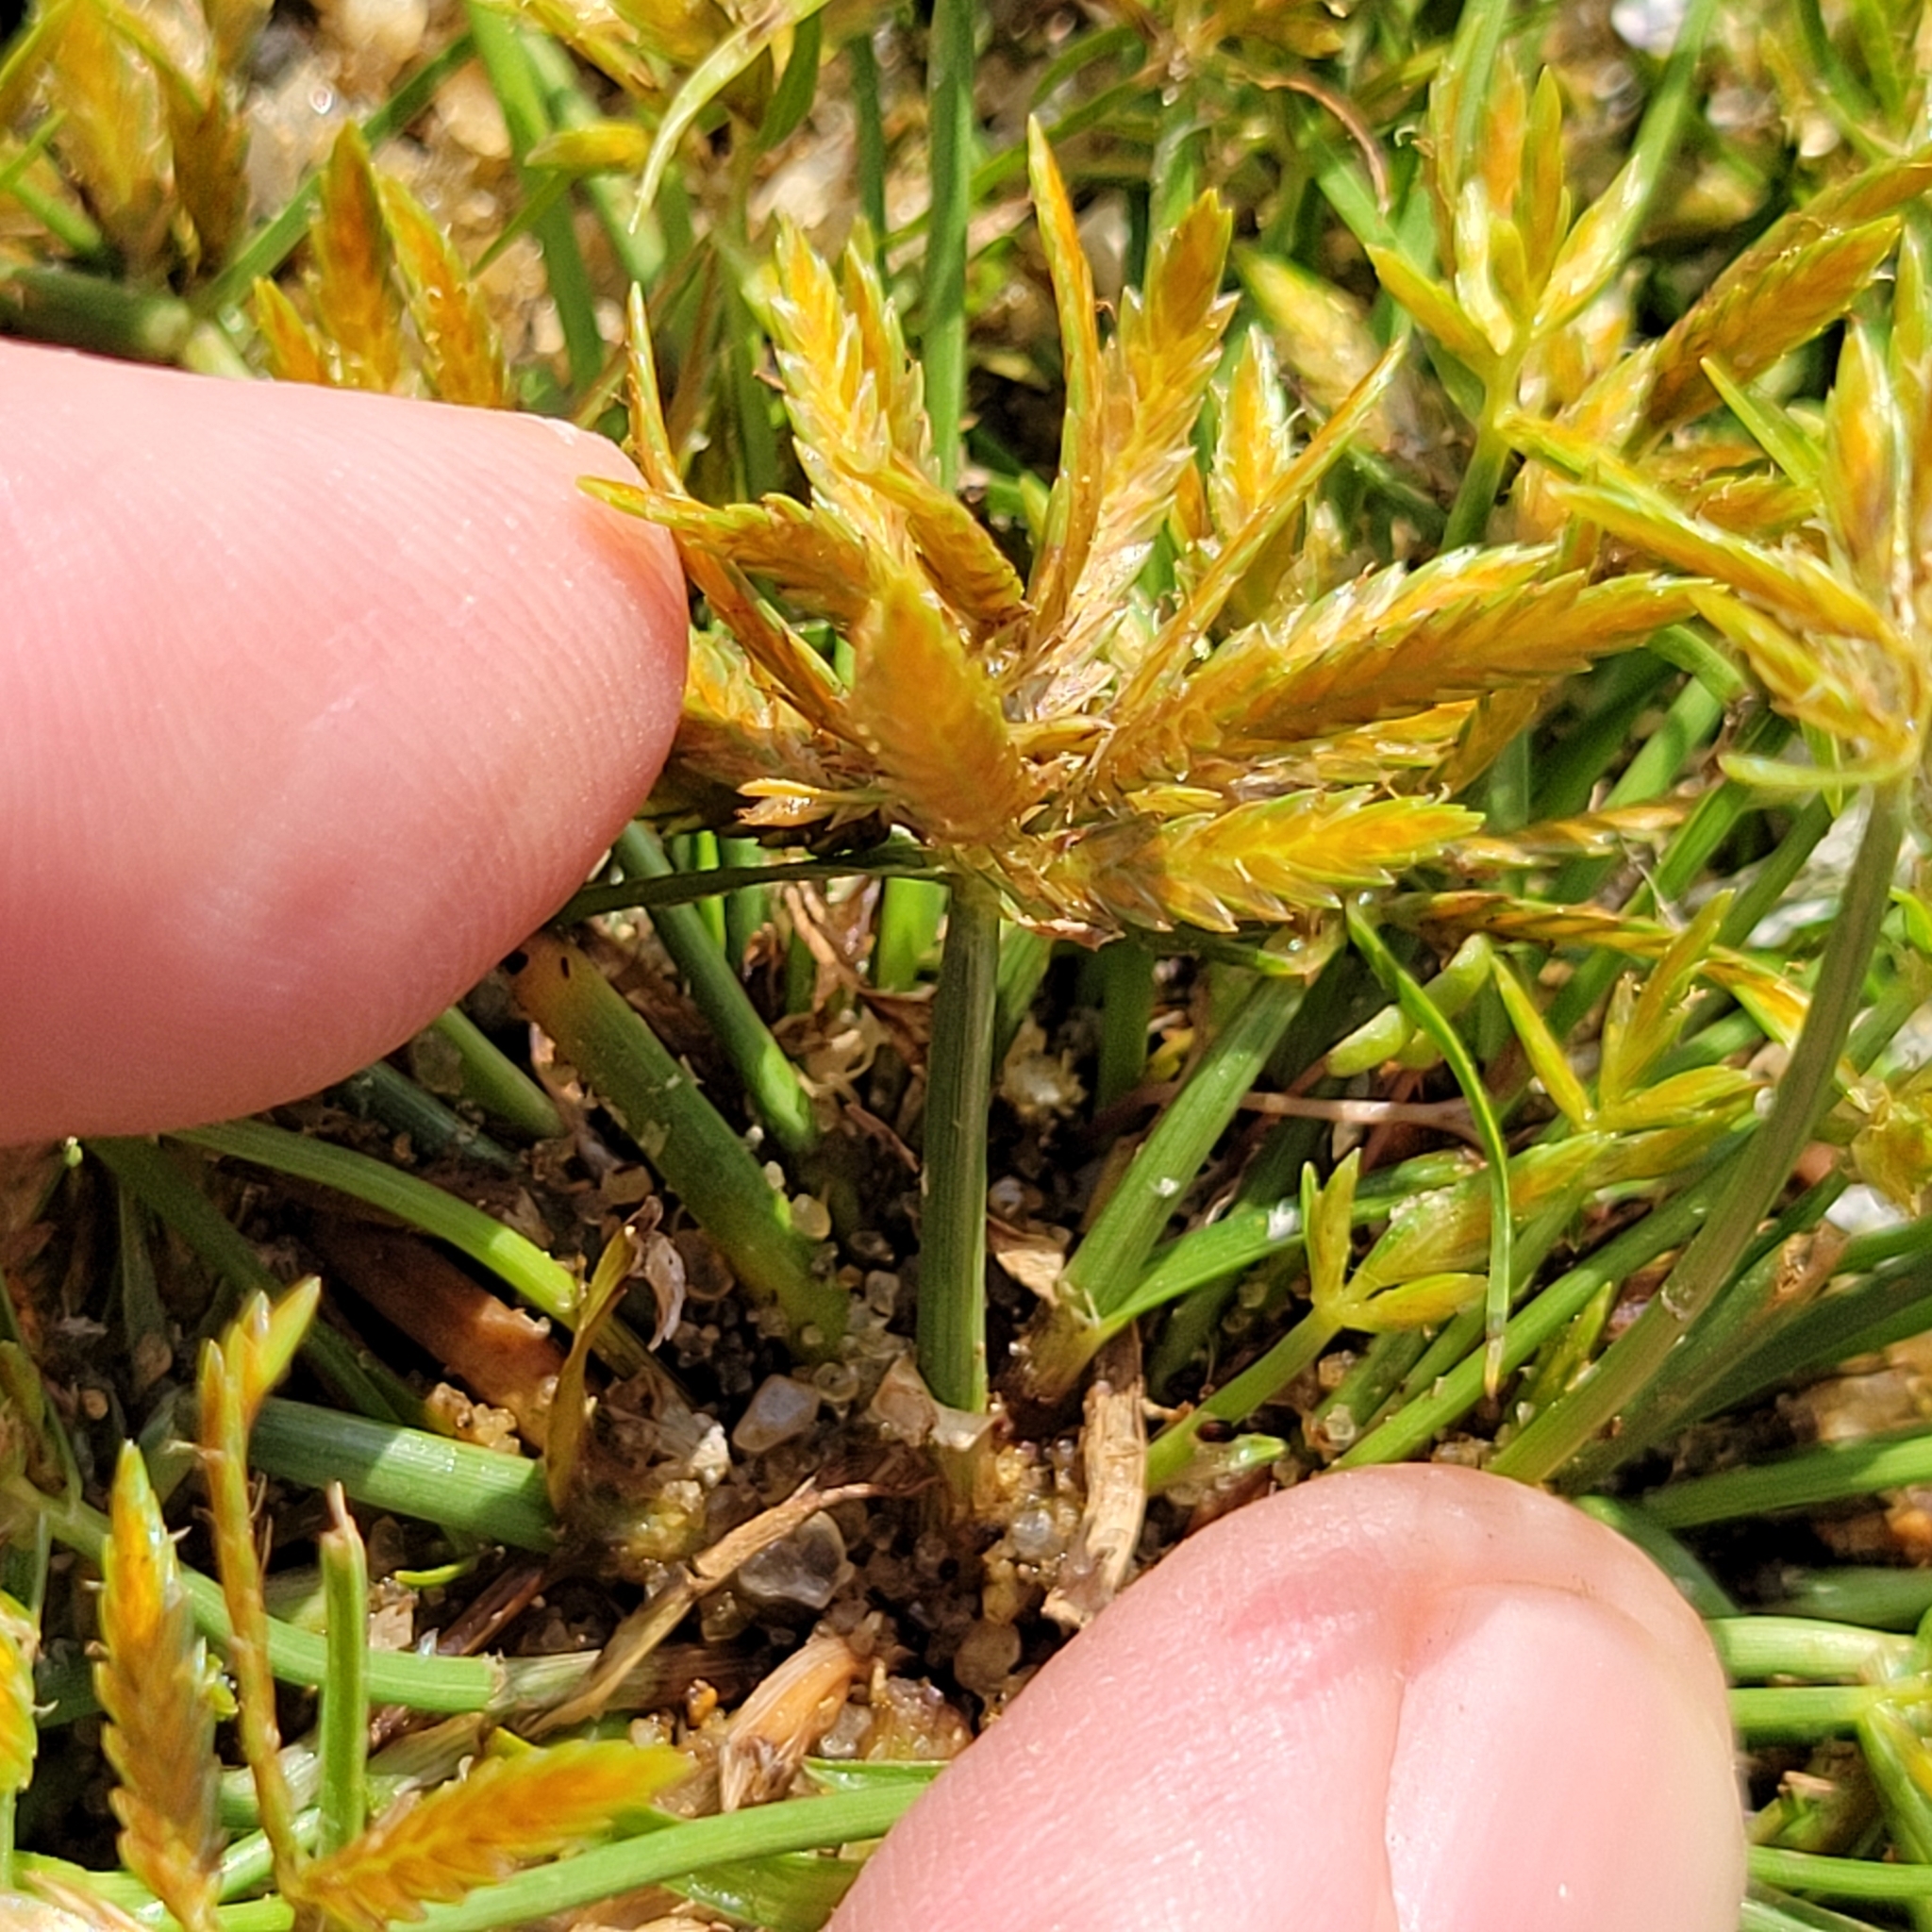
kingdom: Plantae
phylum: Tracheophyta
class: Liliopsida
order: Poales
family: Cyperaceae
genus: Cyperus
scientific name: Cyperus filicinus
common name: Fern flatsedge
